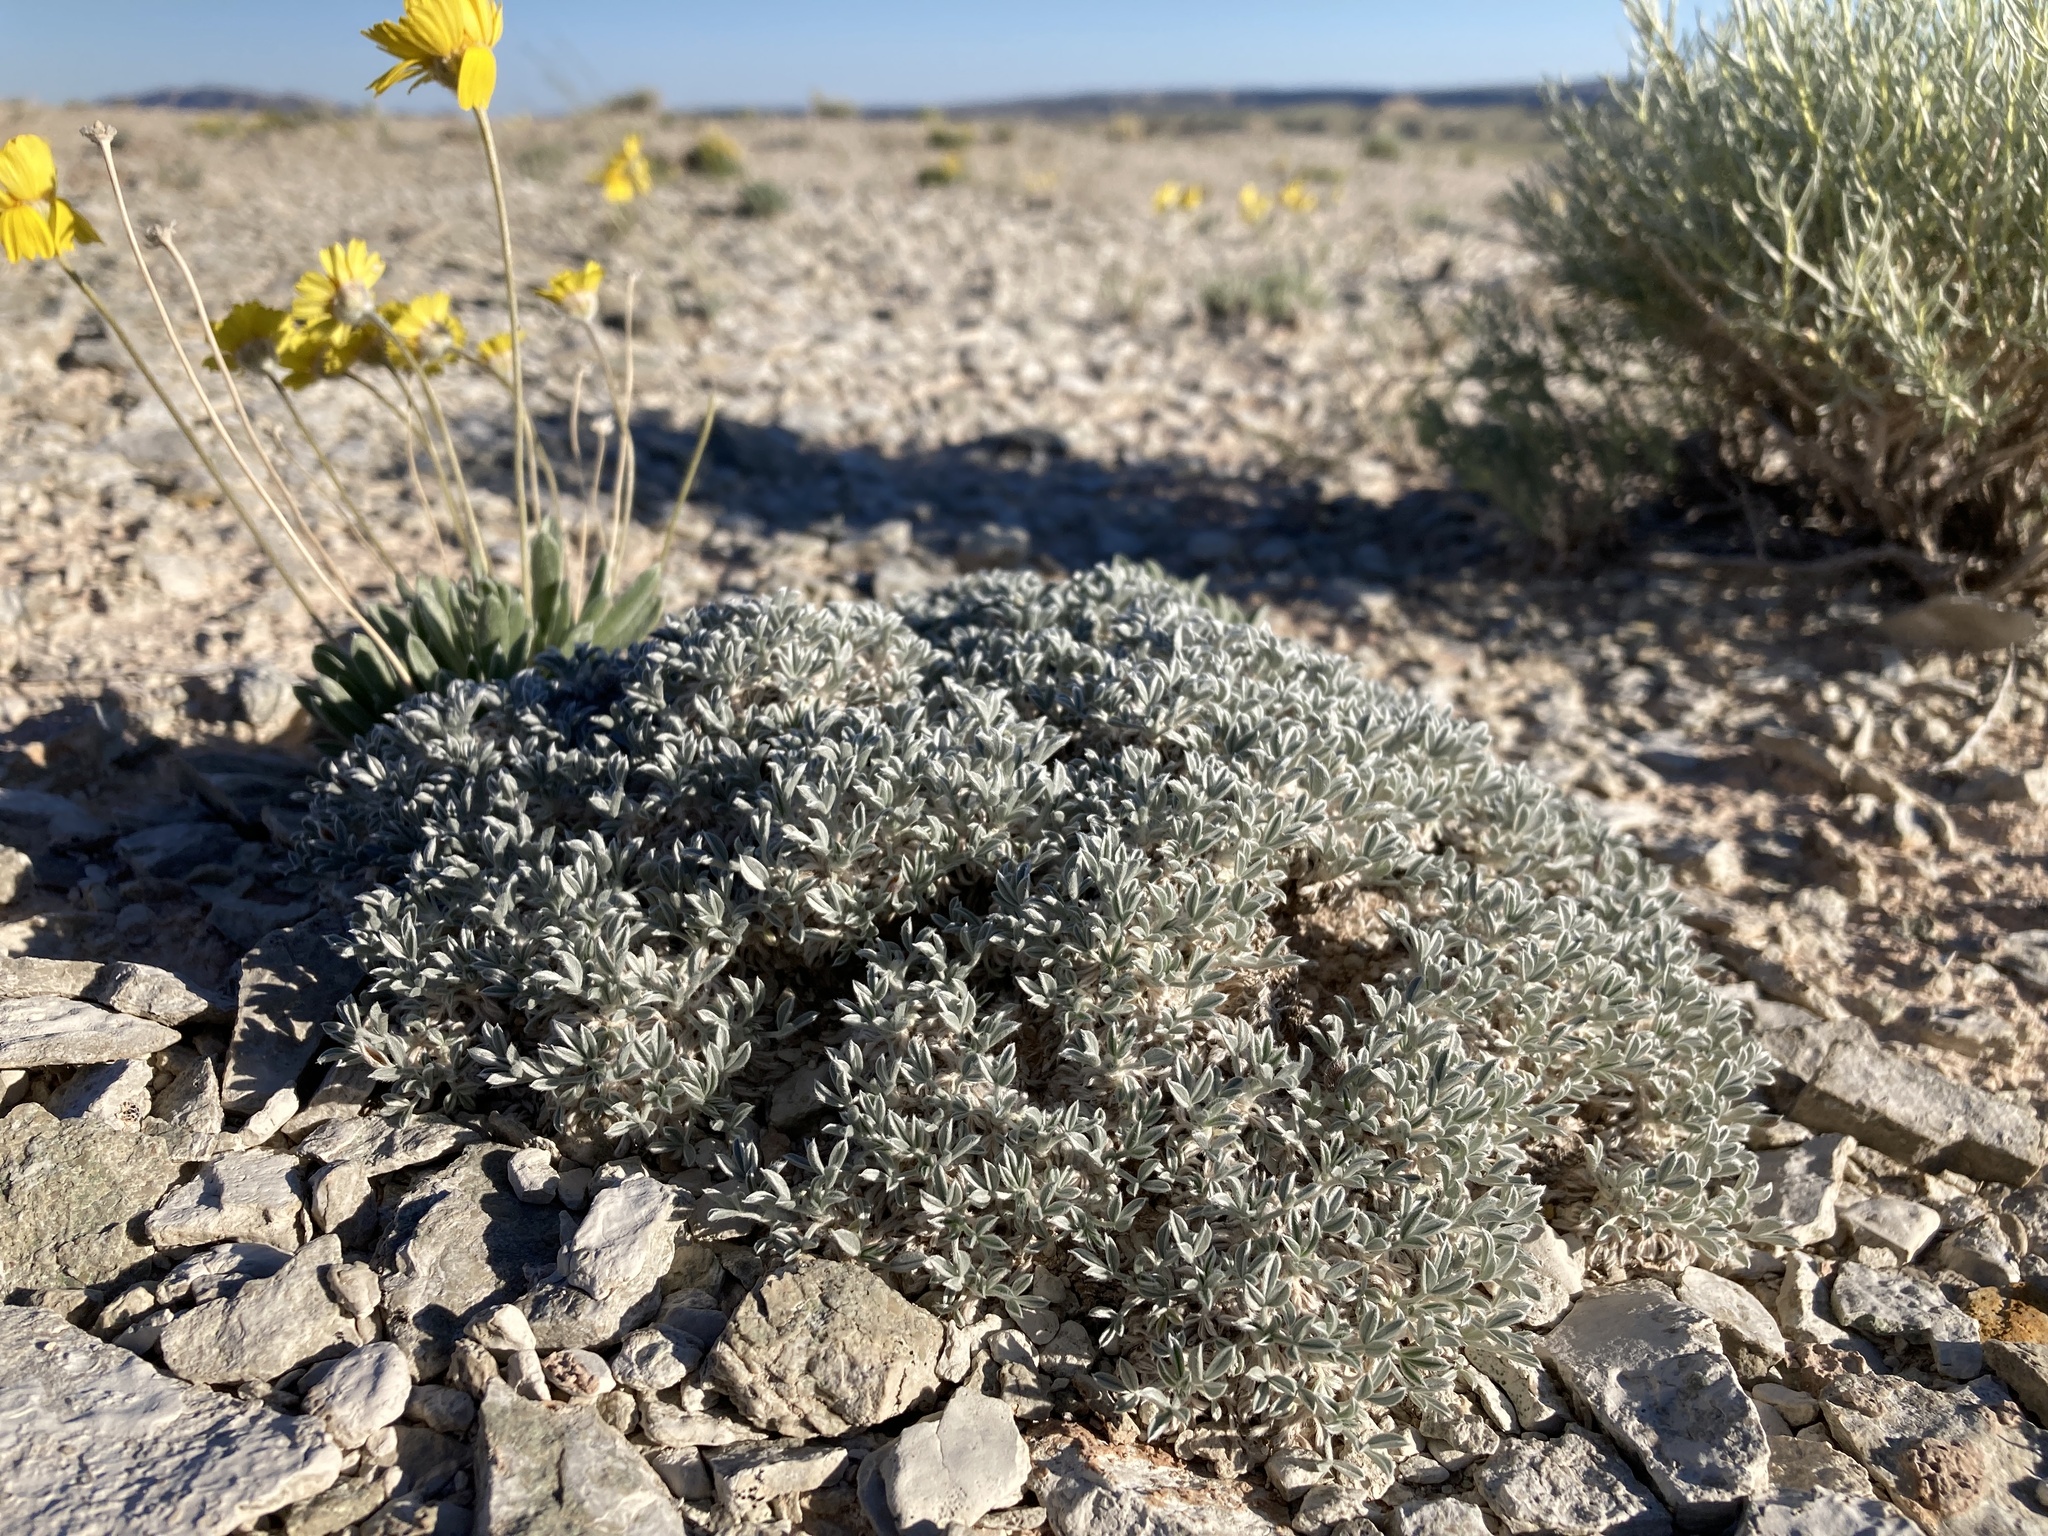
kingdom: Plantae
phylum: Tracheophyta
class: Magnoliopsida
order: Fabales
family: Fabaceae
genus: Astragalus
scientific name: Astragalus hyalinus
